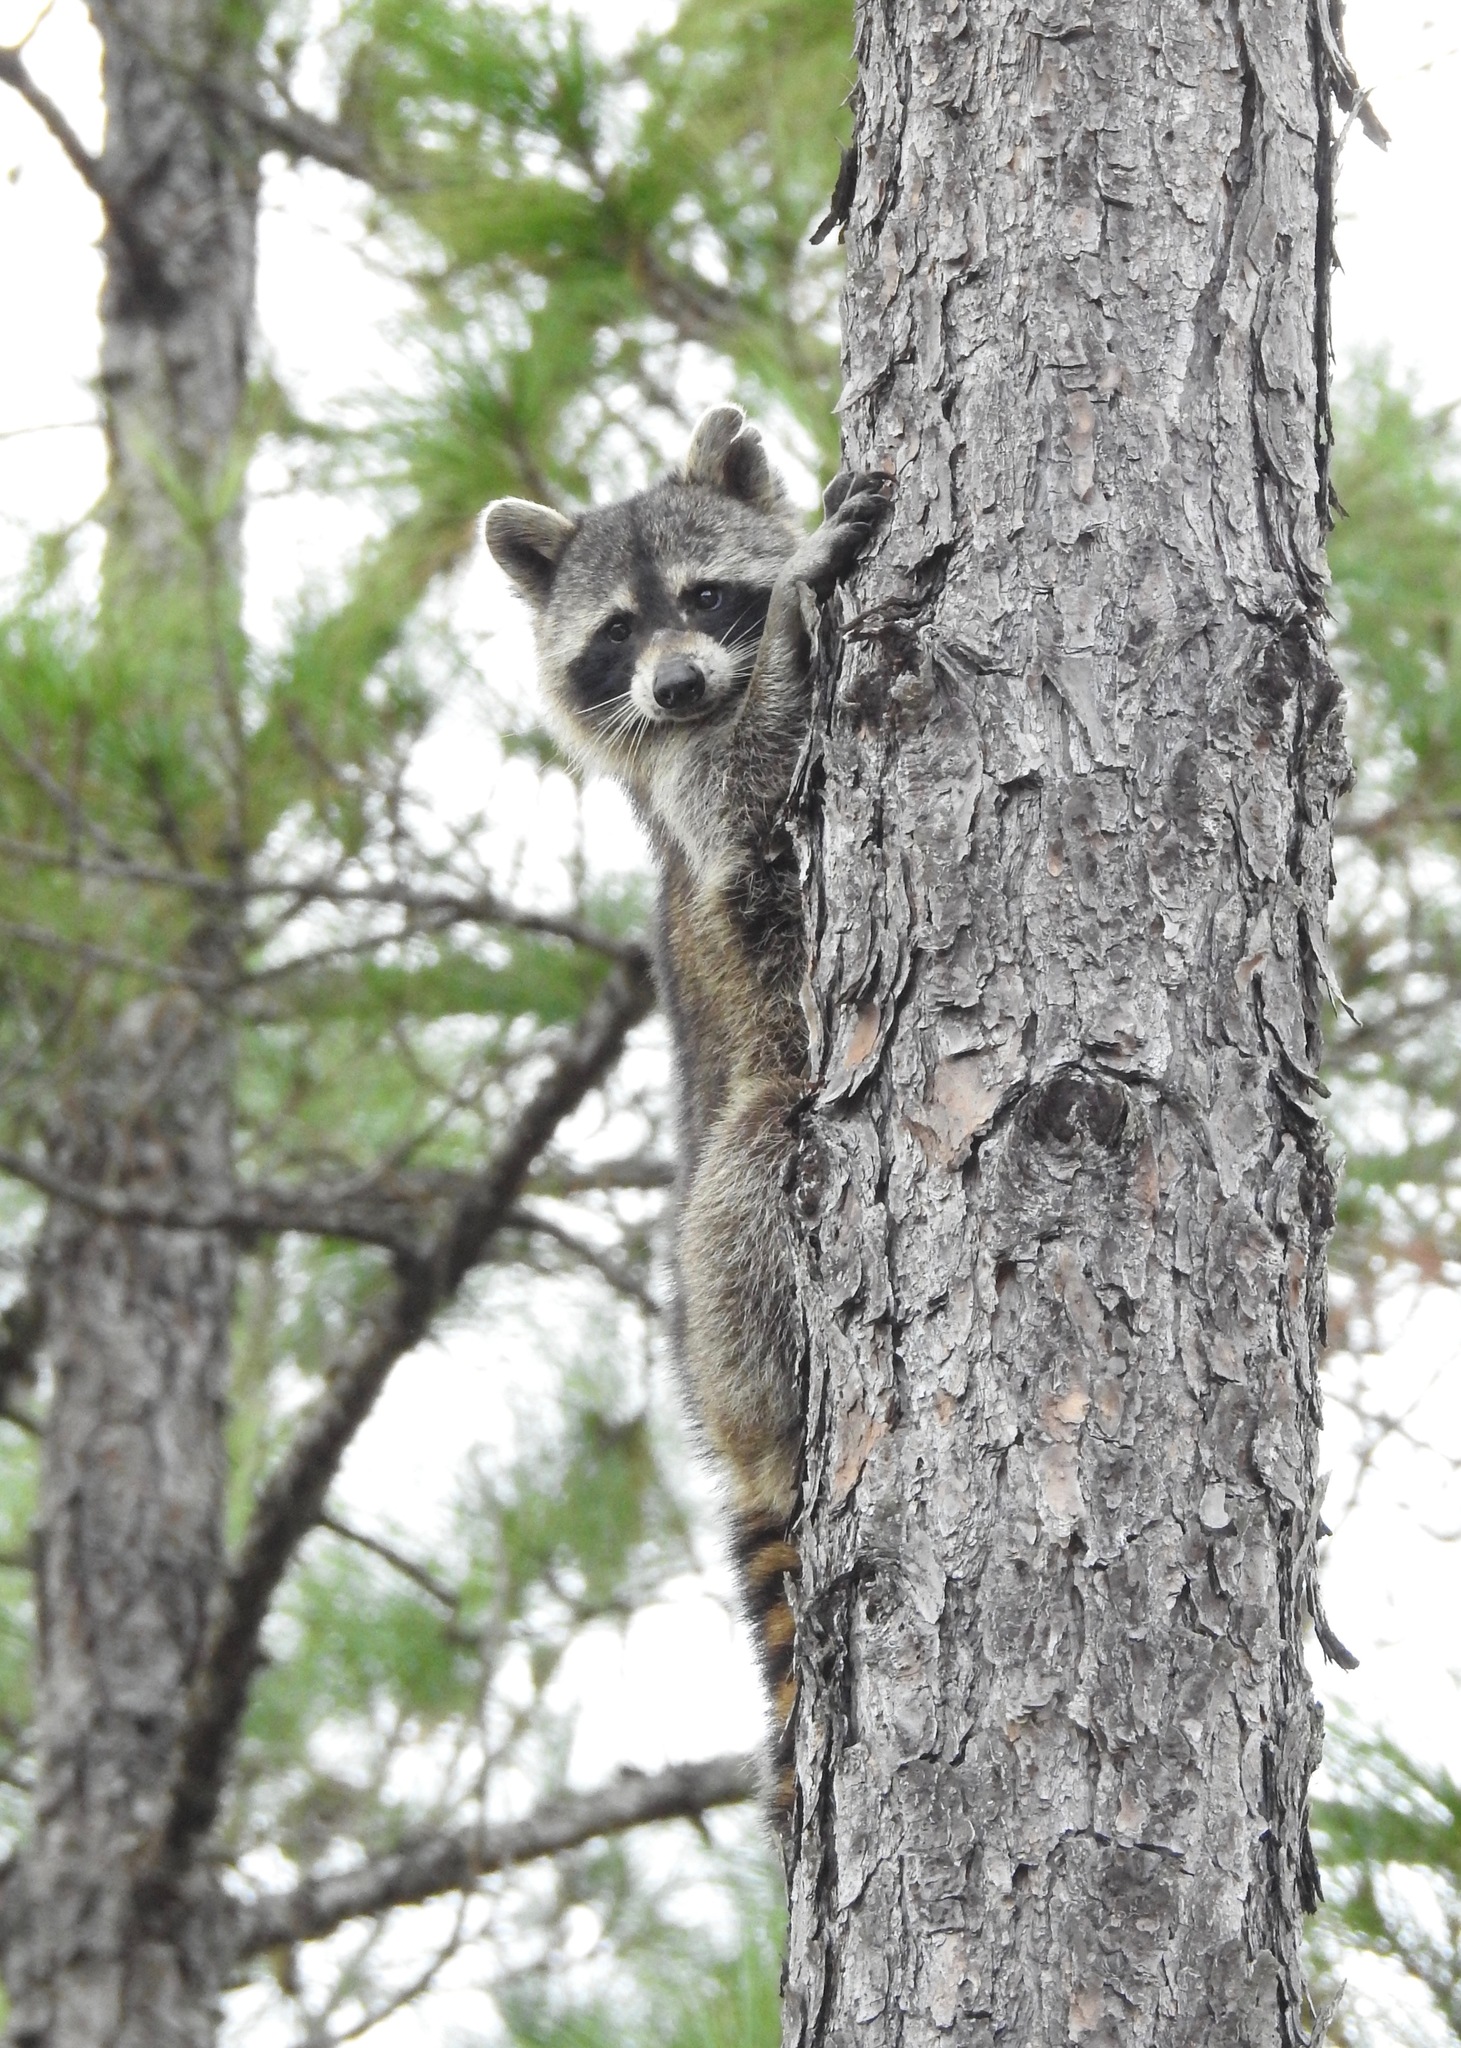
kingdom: Animalia
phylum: Chordata
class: Mammalia
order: Carnivora
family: Procyonidae
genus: Procyon
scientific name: Procyon lotor
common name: Raccoon
